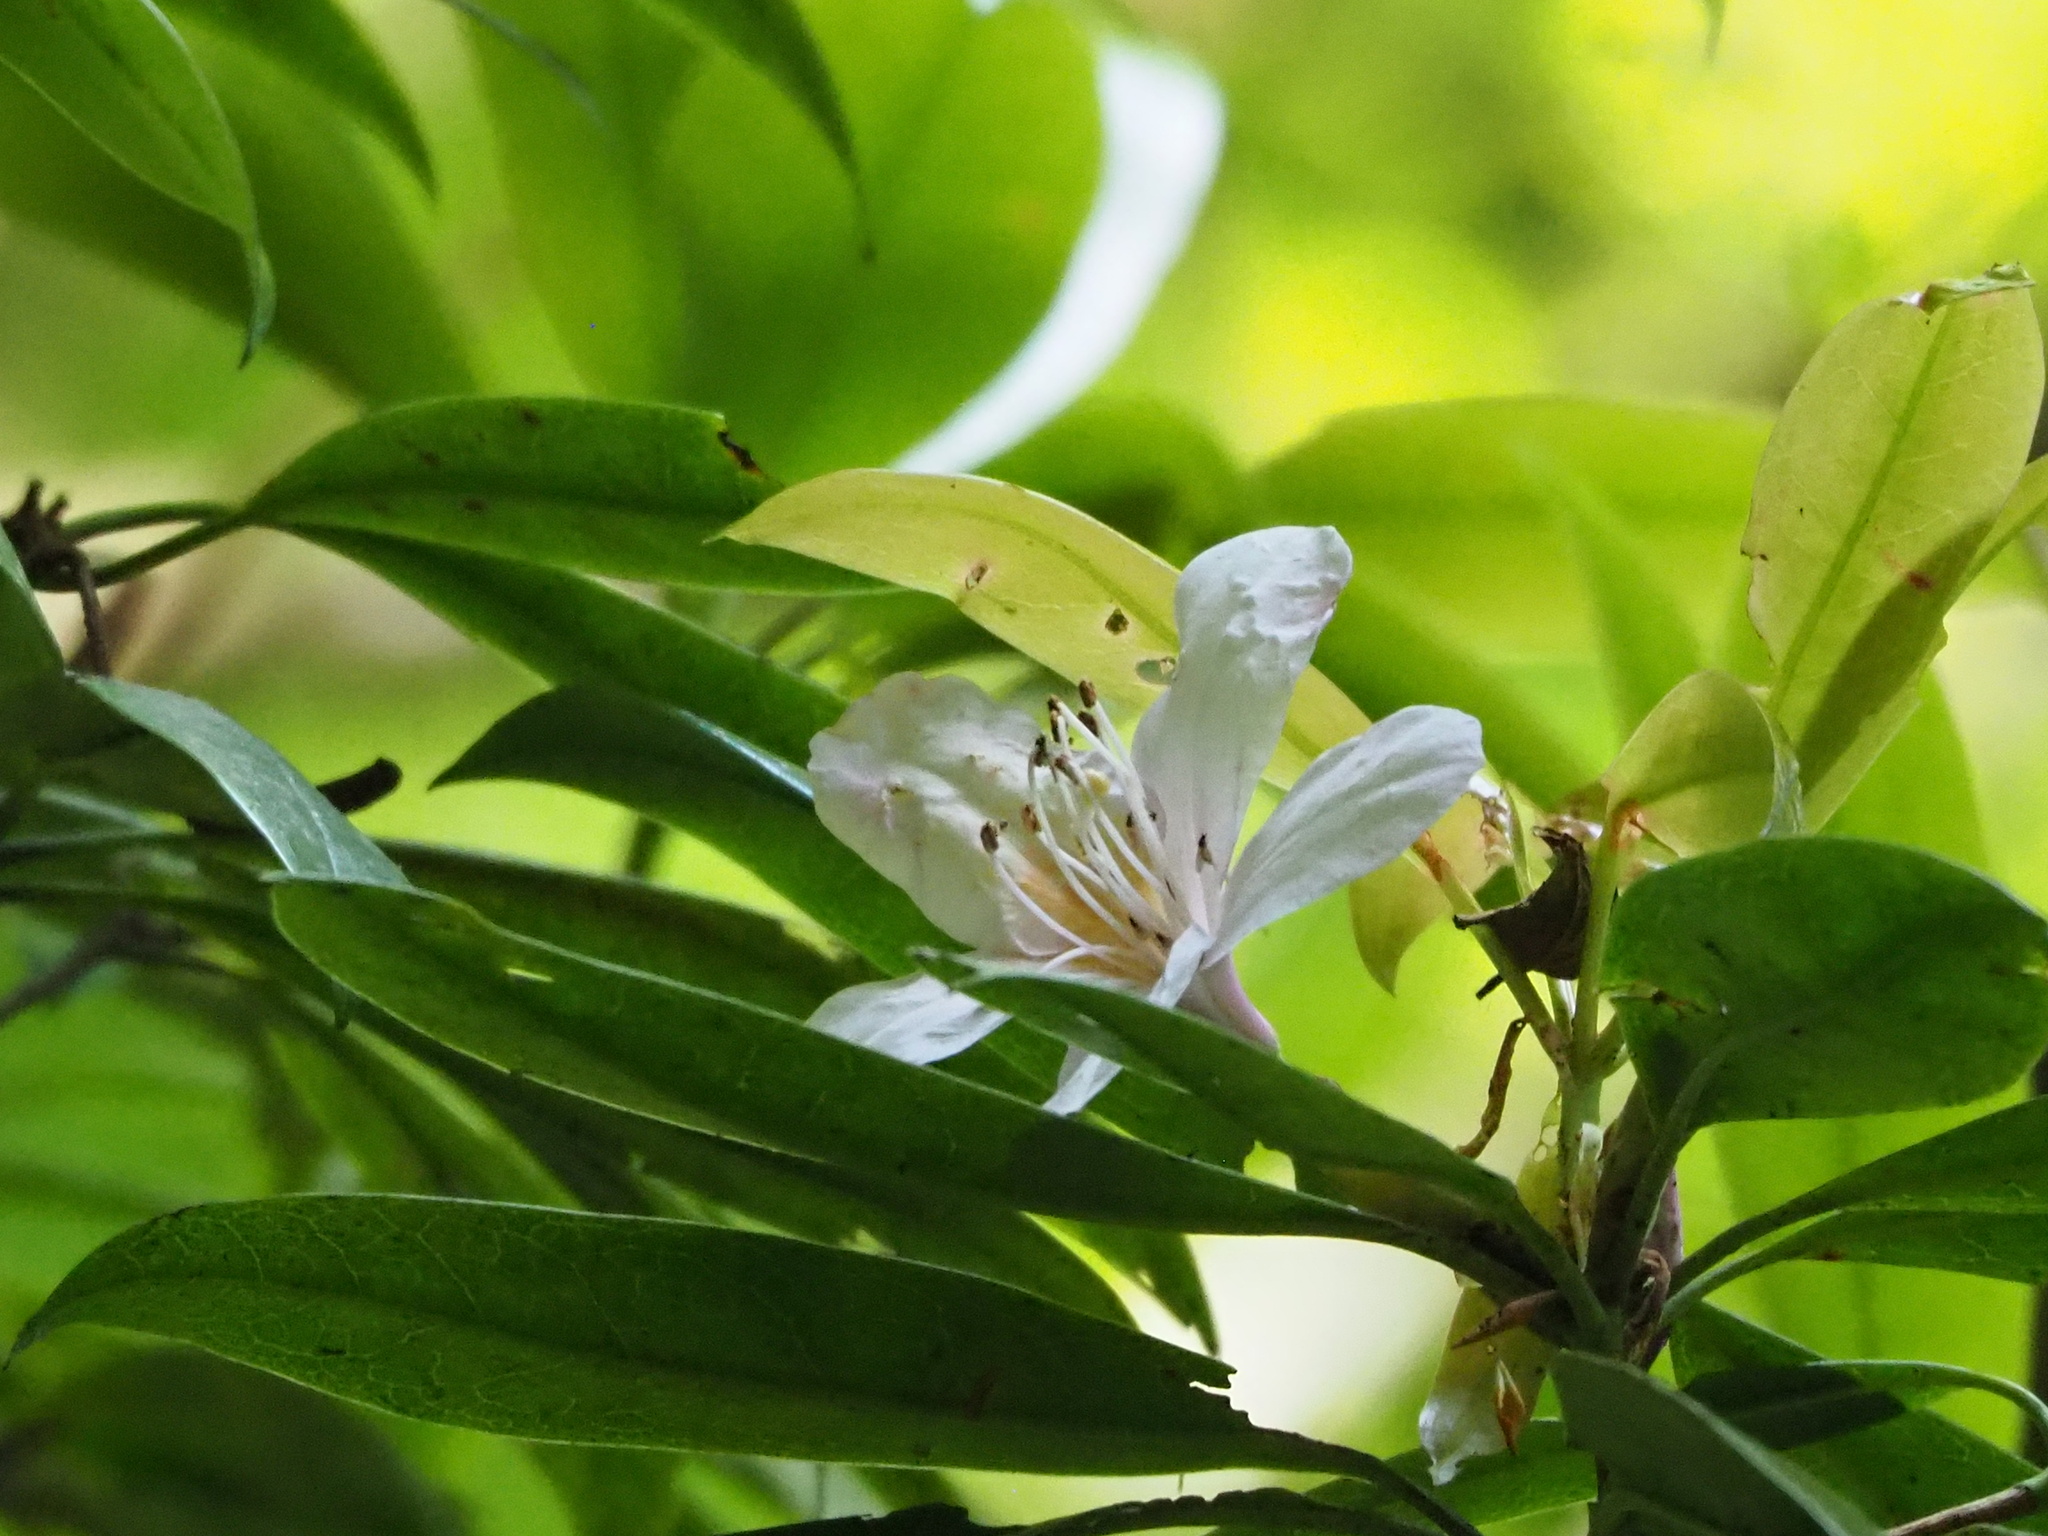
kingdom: Plantae
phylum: Tracheophyta
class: Magnoliopsida
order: Ericales
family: Ericaceae
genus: Rhododendron
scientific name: Rhododendron latoucheae
